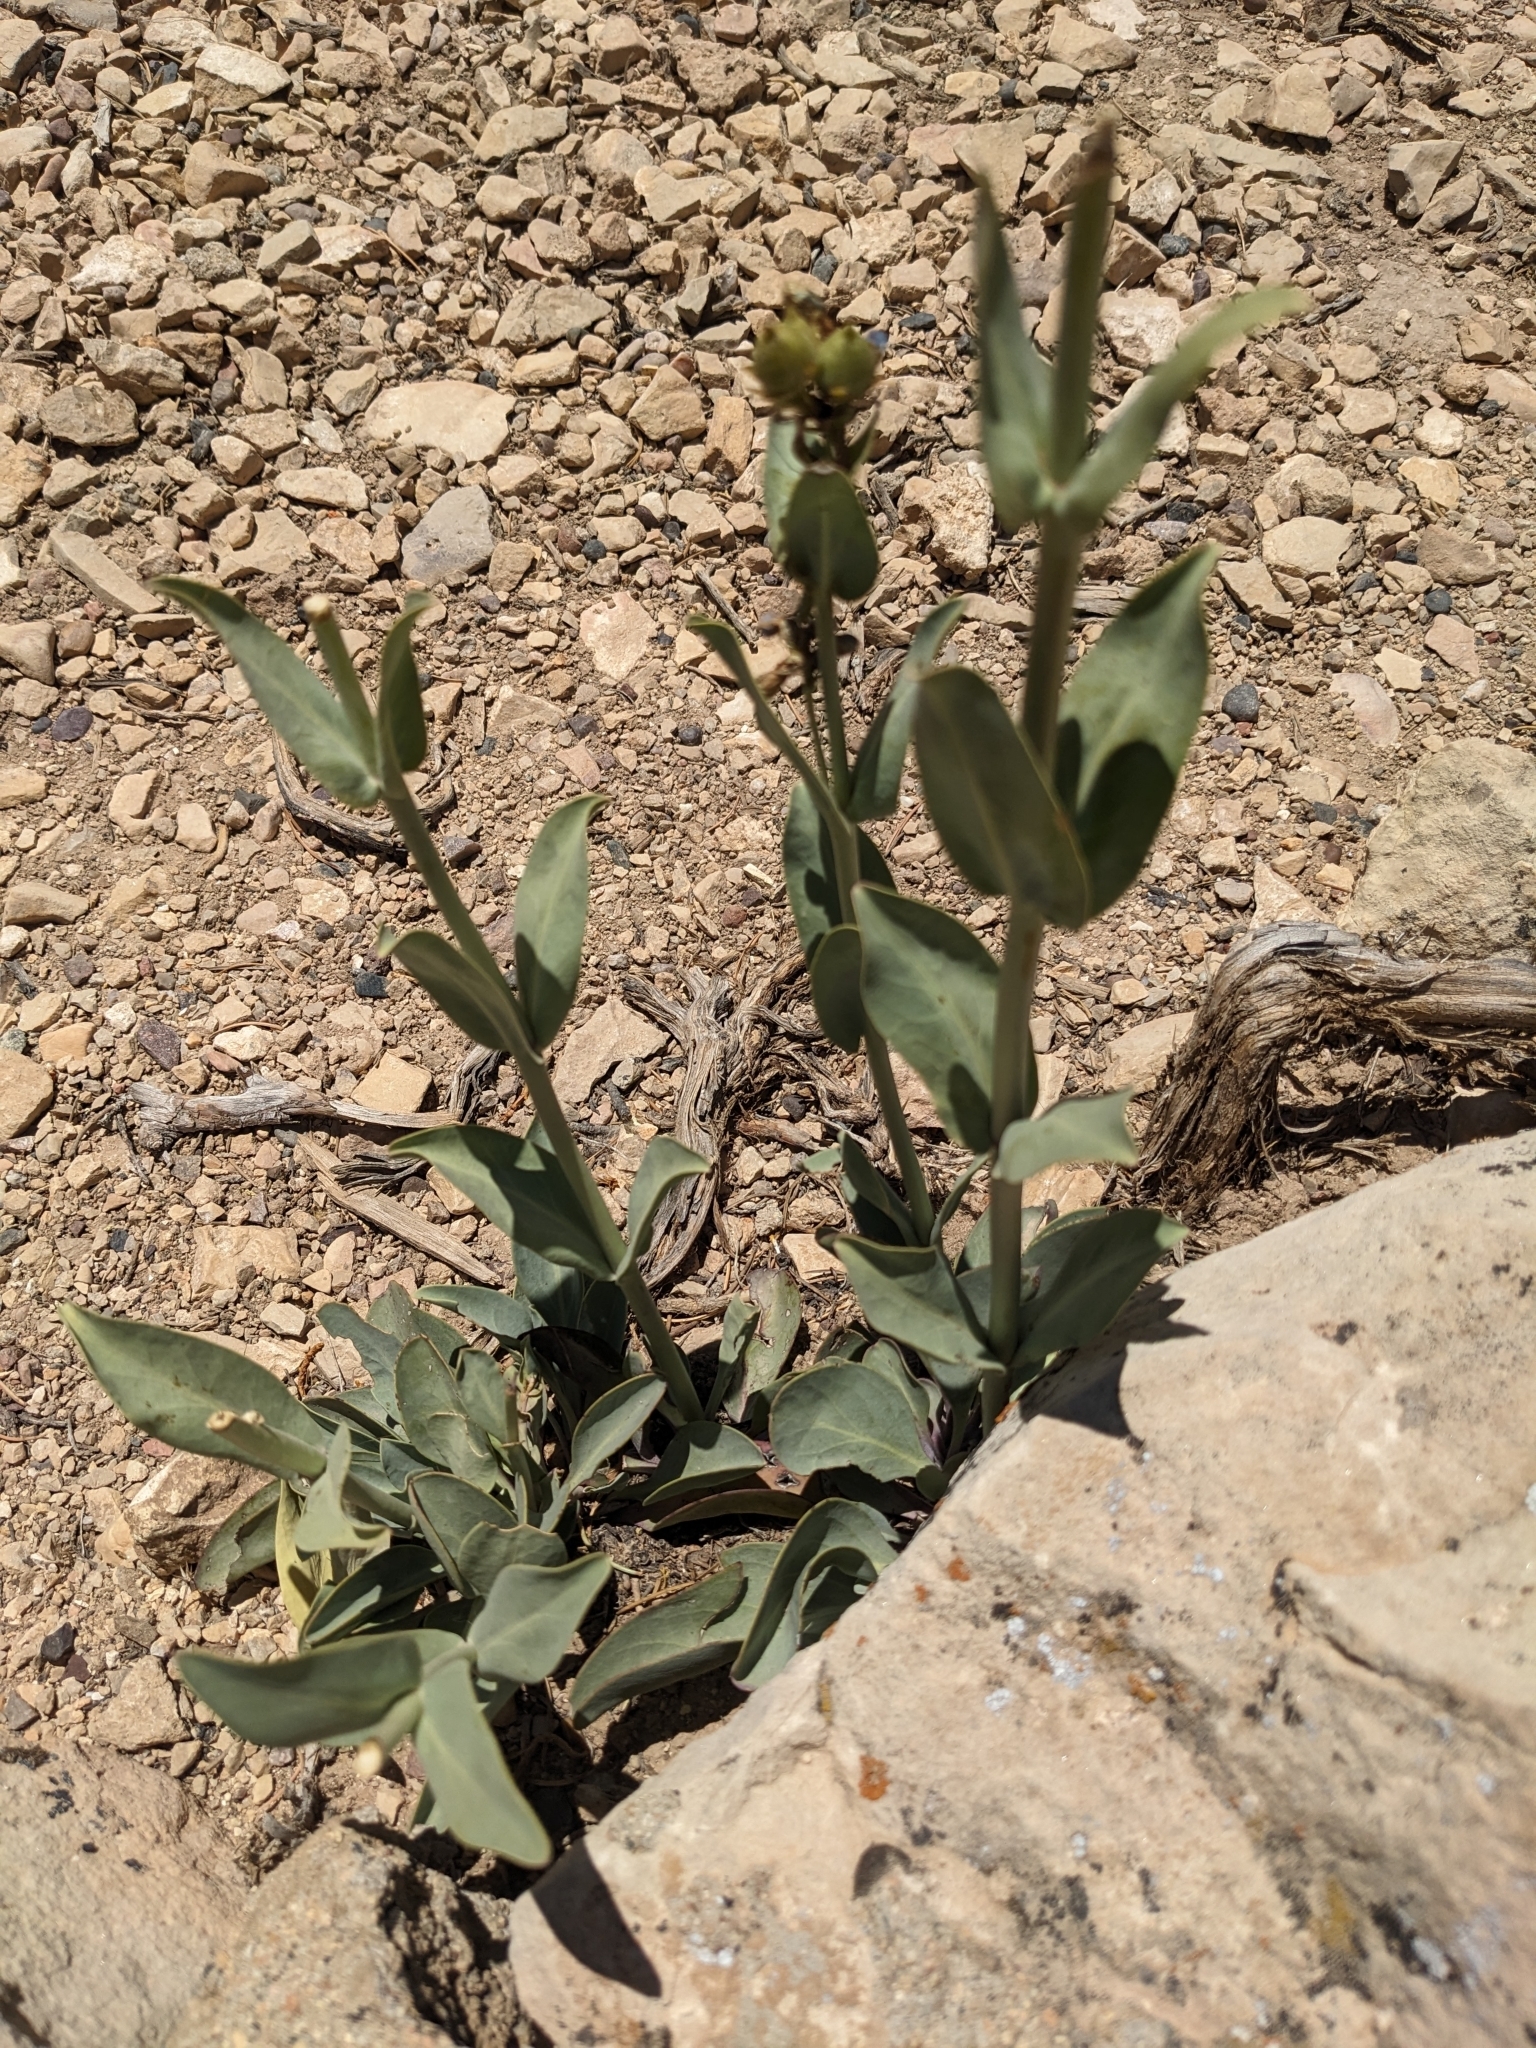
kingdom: Plantae
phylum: Tracheophyta
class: Magnoliopsida
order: Lamiales
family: Plantaginaceae
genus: Penstemon
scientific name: Penstemon pachyphyllus
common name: Thick-leaf penstemon
